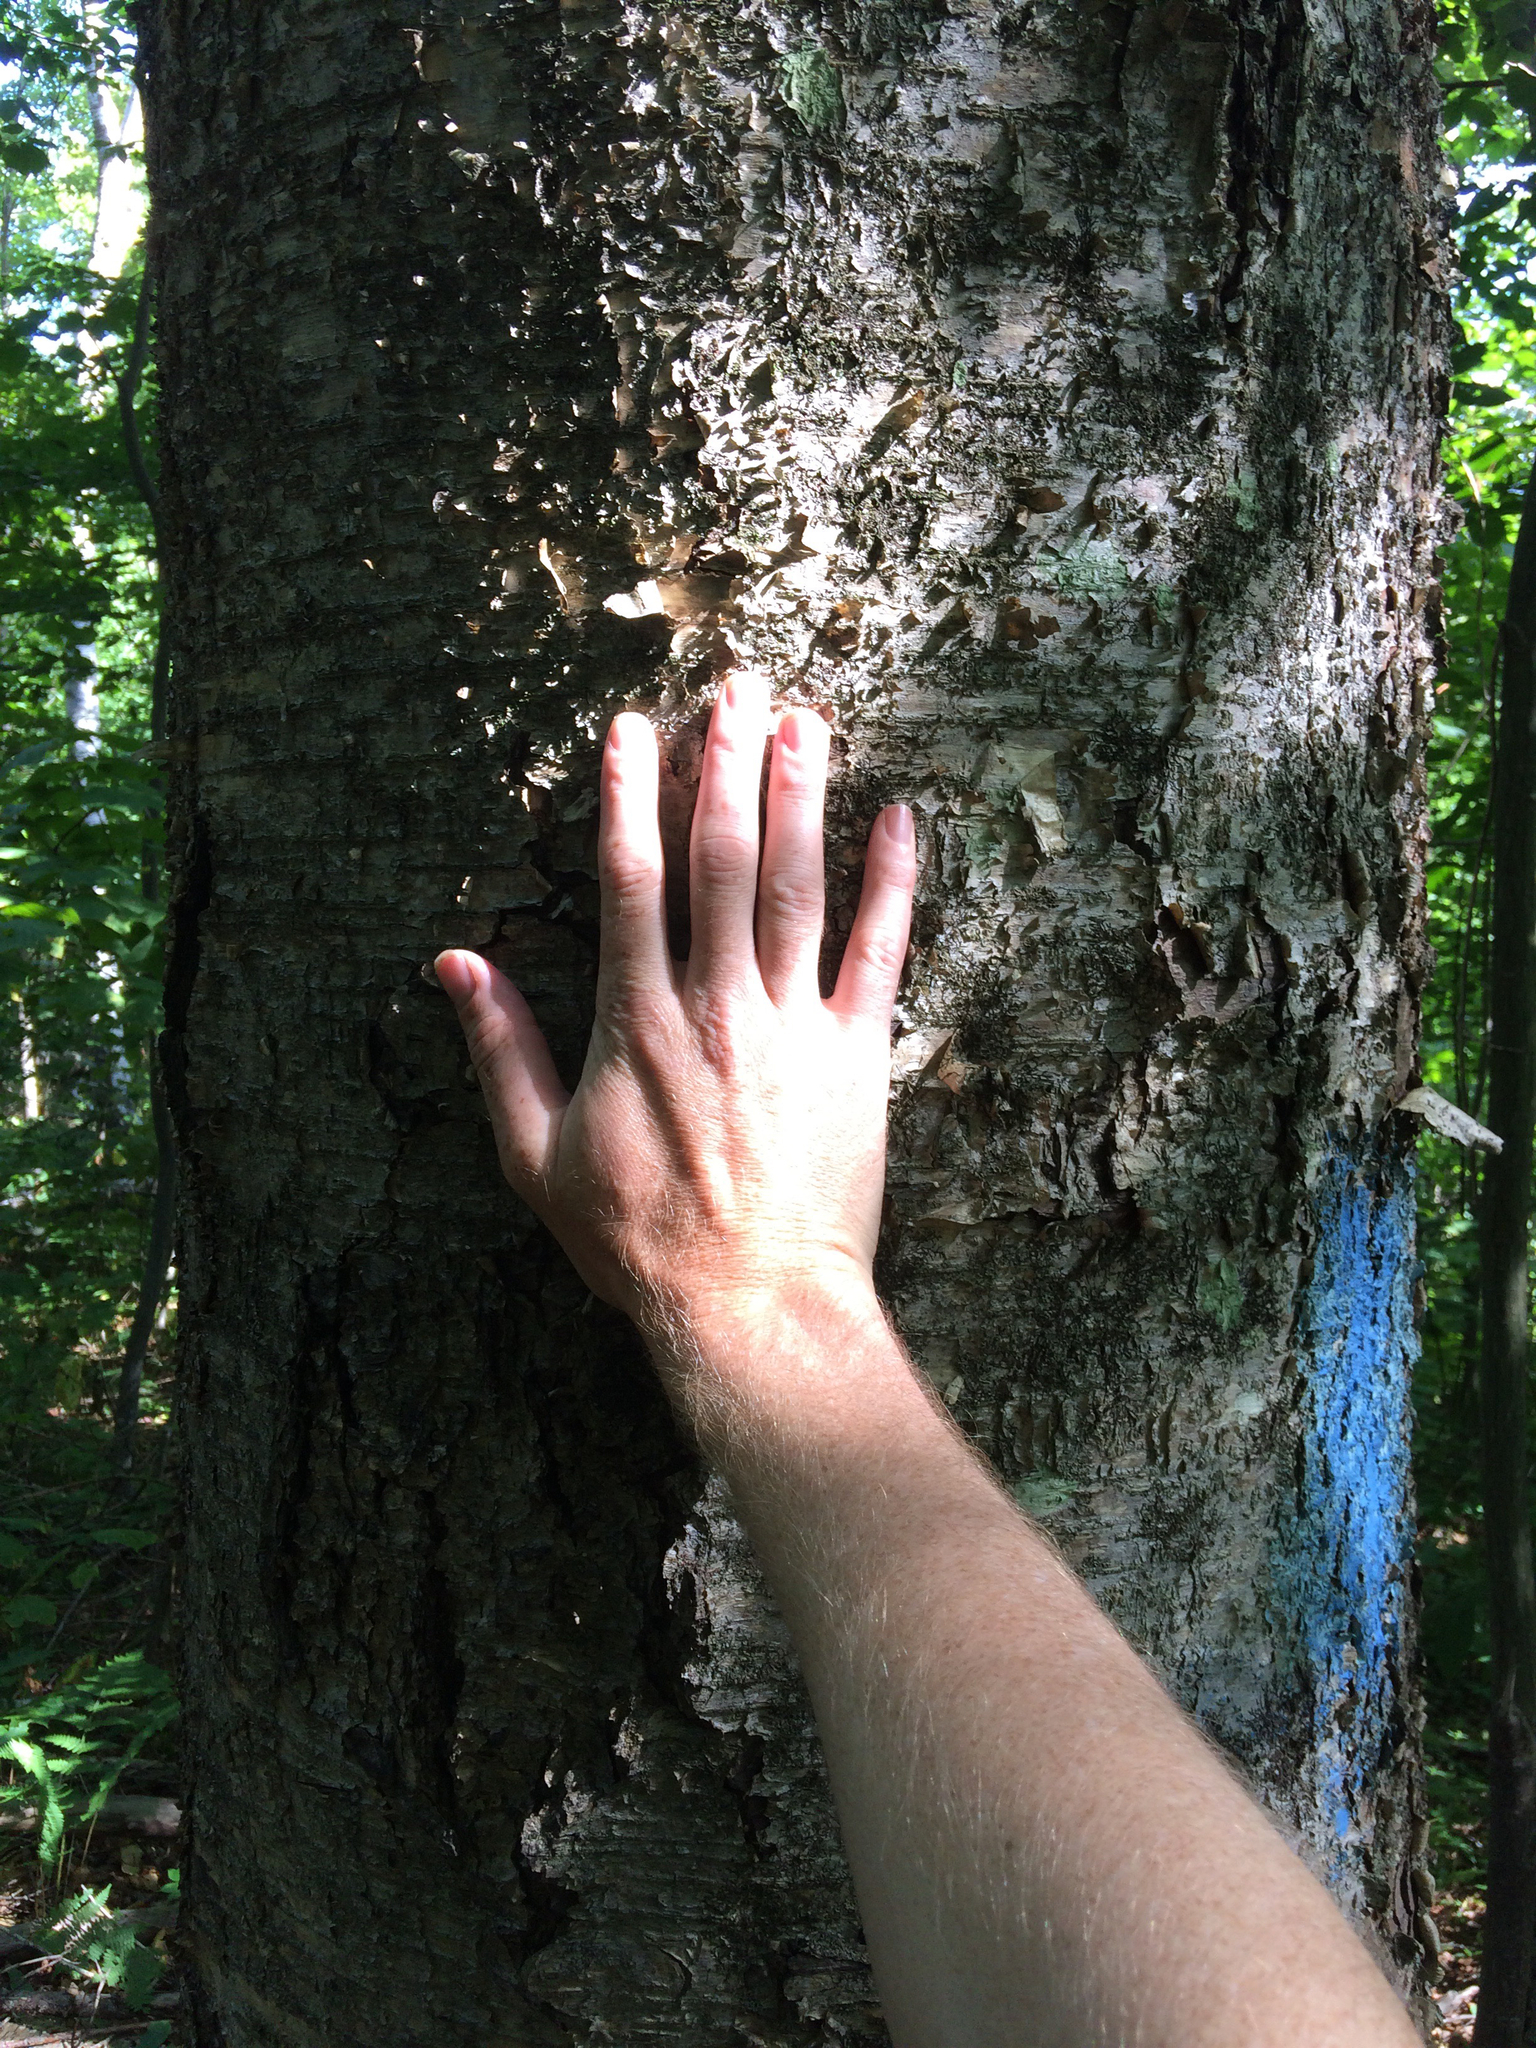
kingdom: Plantae
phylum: Tracheophyta
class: Magnoliopsida
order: Fagales
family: Betulaceae
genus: Betula
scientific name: Betula alleghaniensis
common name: Yellow birch
